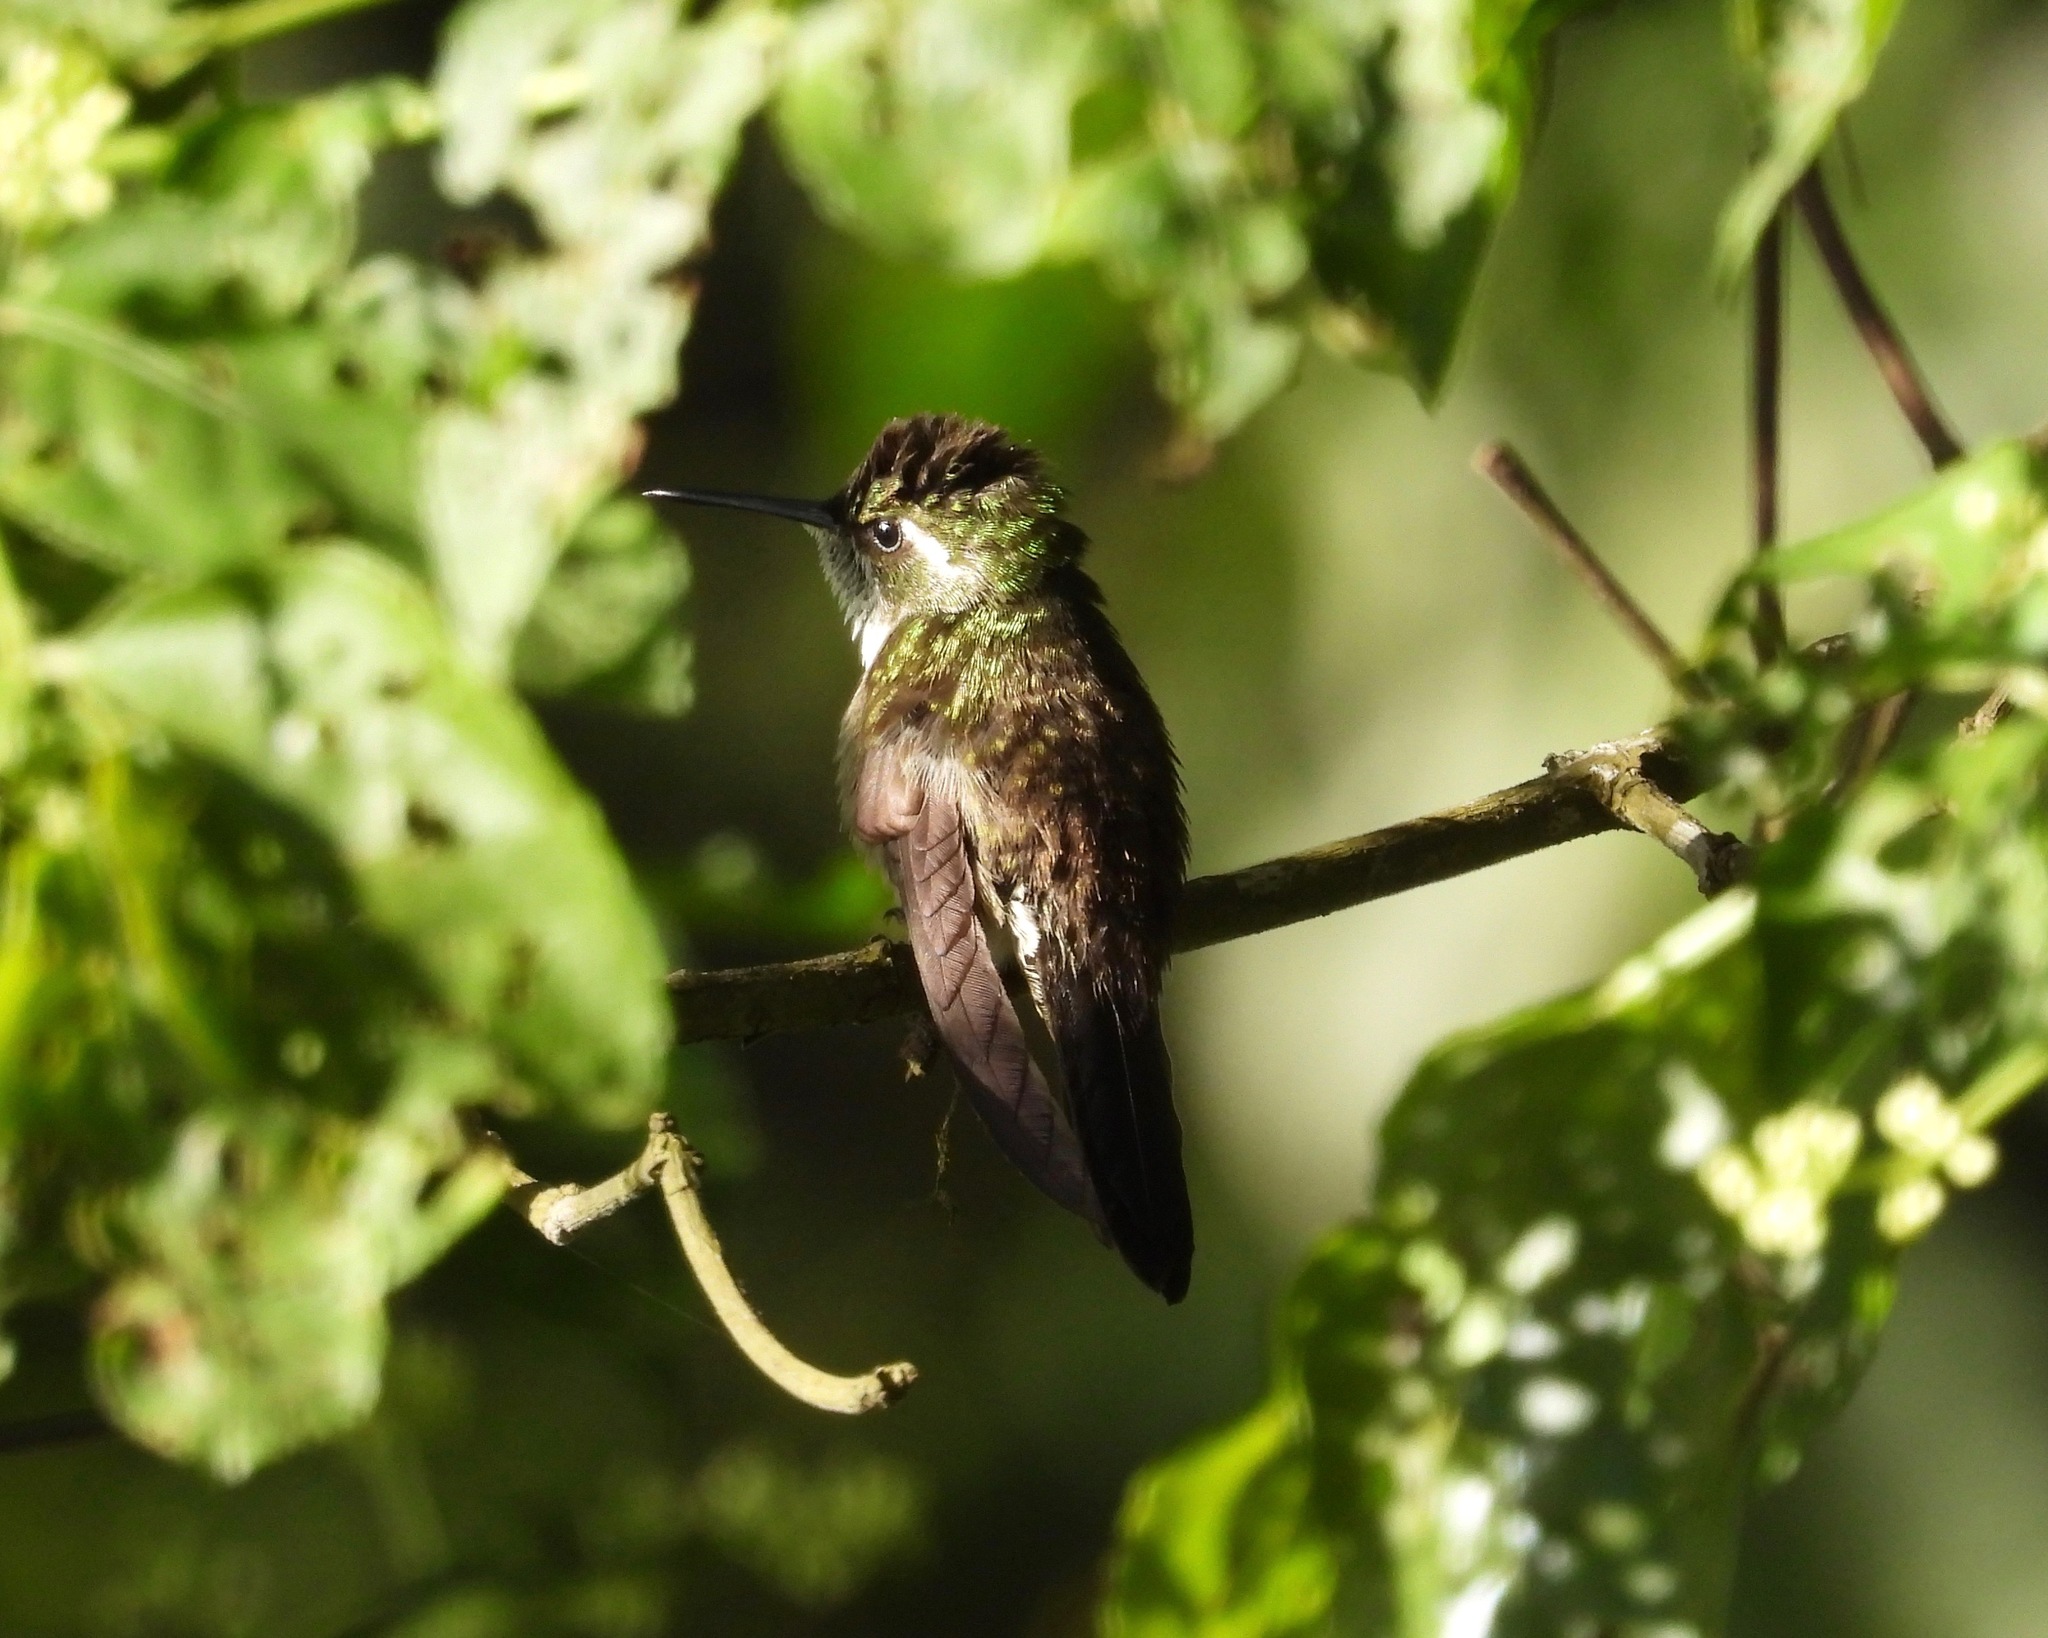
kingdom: Animalia
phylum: Chordata
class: Aves
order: Apodiformes
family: Trochilidae
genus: Lampornis
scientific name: Lampornis viridipallens
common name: Green-throated mountain-gem
